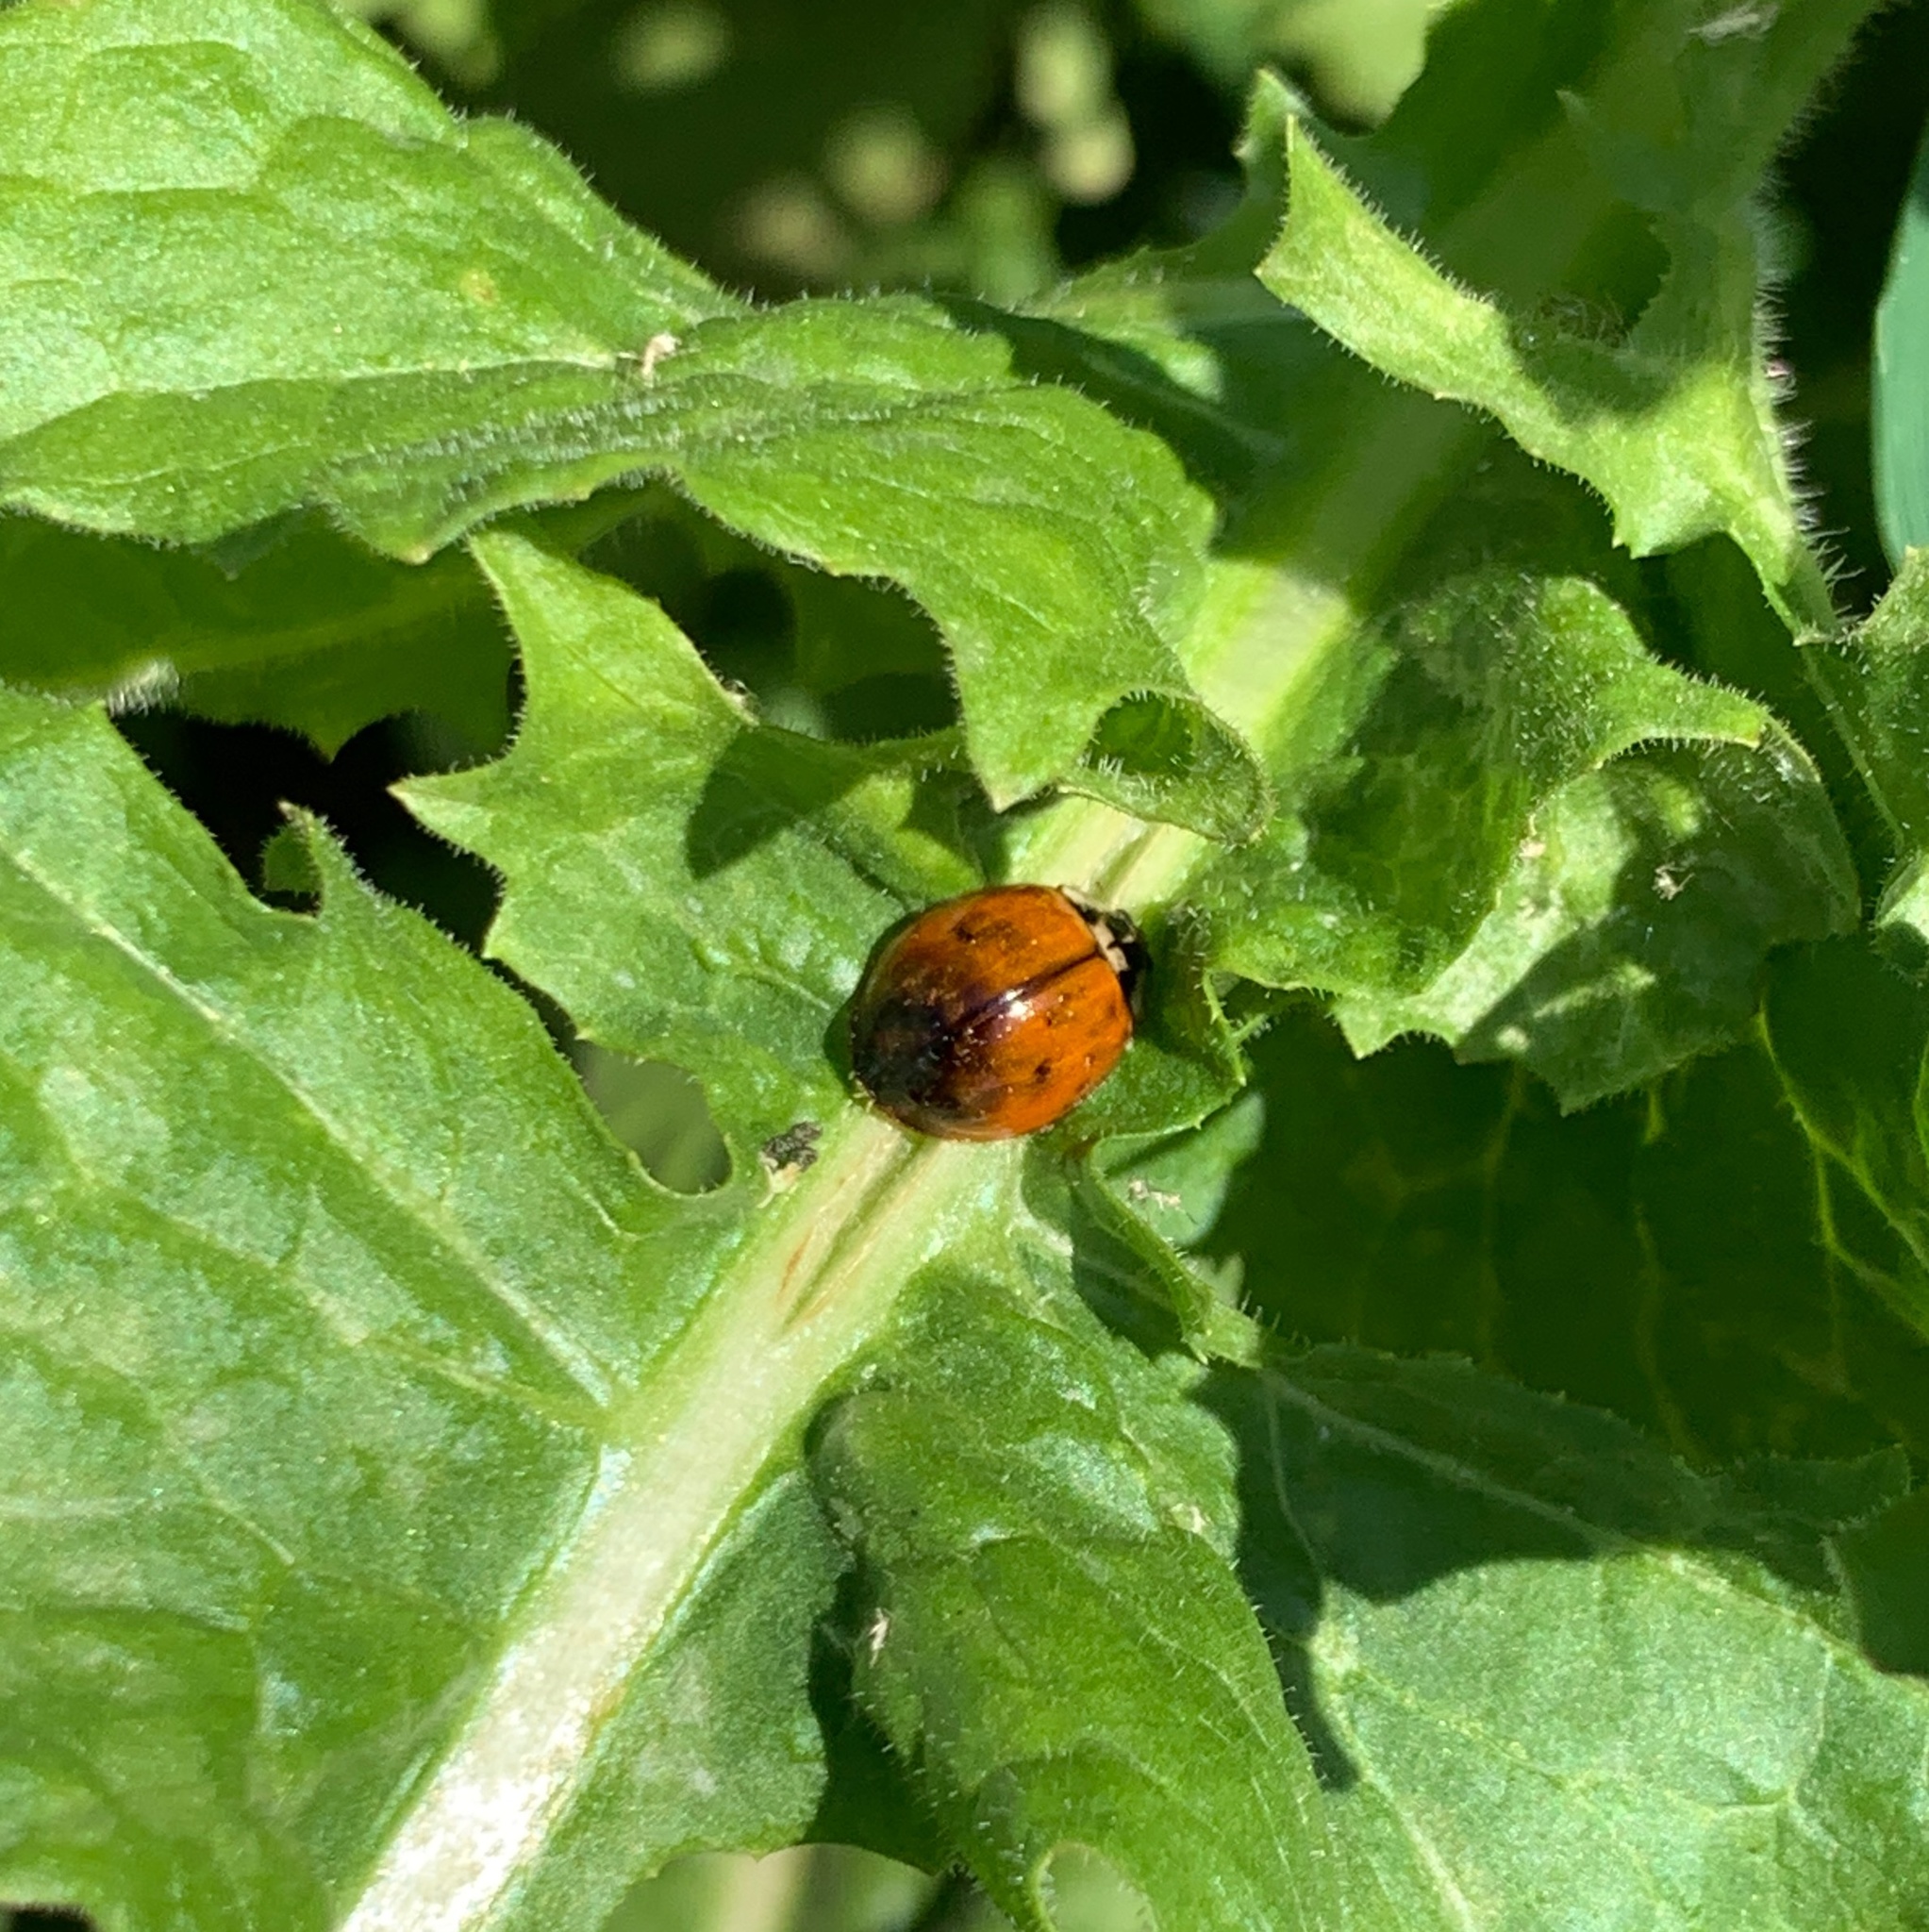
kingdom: Animalia
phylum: Arthropoda
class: Insecta
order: Coleoptera
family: Coccinellidae
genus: Harmonia
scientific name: Harmonia axyridis
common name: Harlequin ladybird
